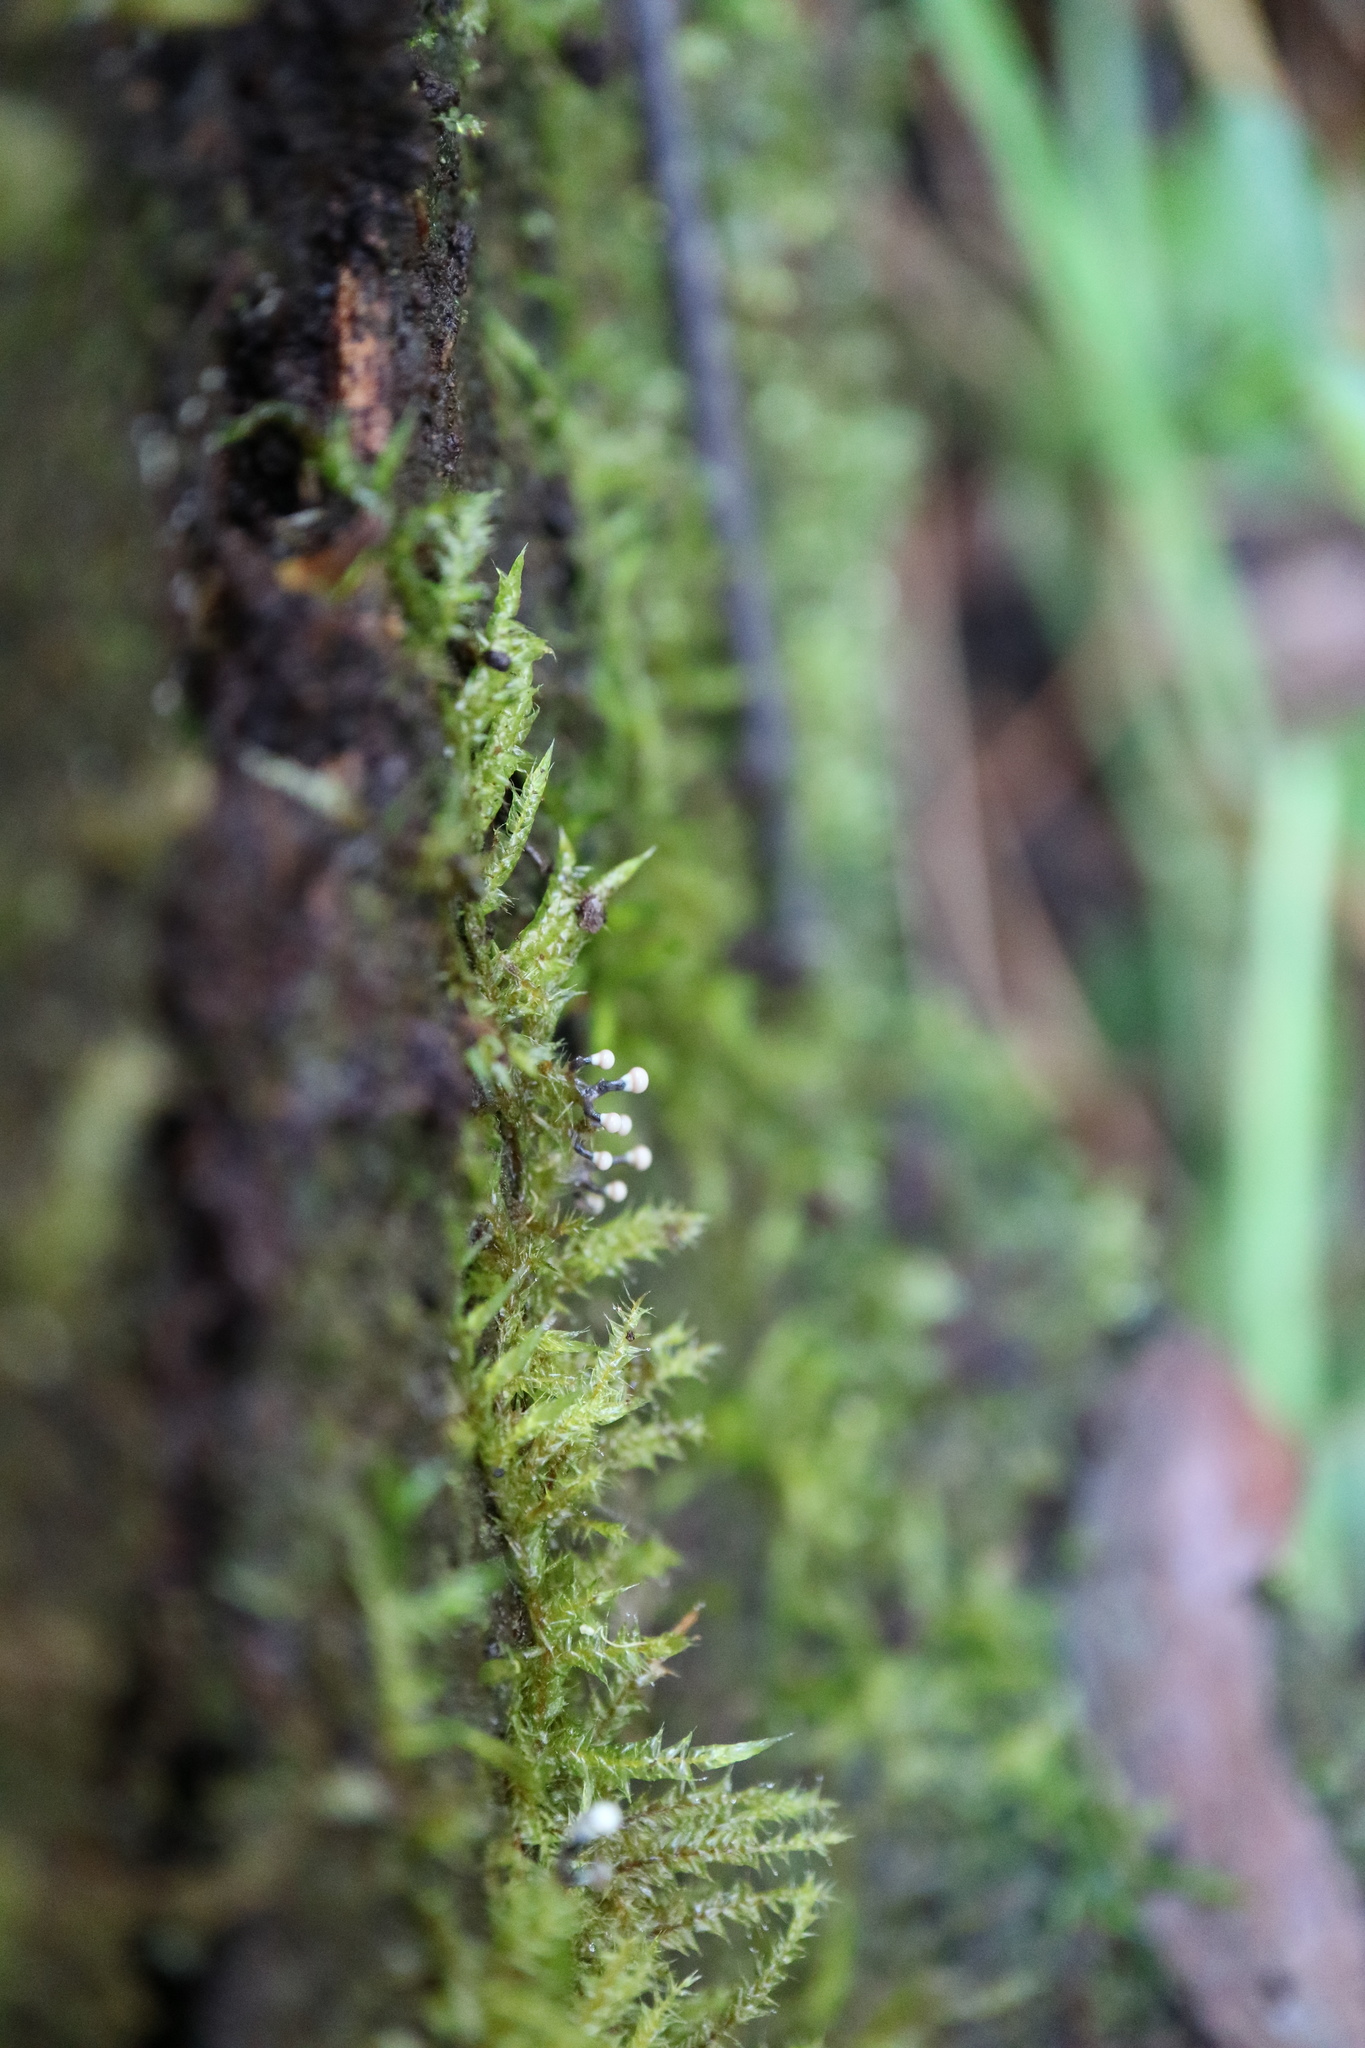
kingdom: Protozoa
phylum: Mycetozoa
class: Myxomycetes
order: Physarales
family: Elaeomyxaceae
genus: Elaeomyxa
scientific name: Elaeomyxa cerifera
